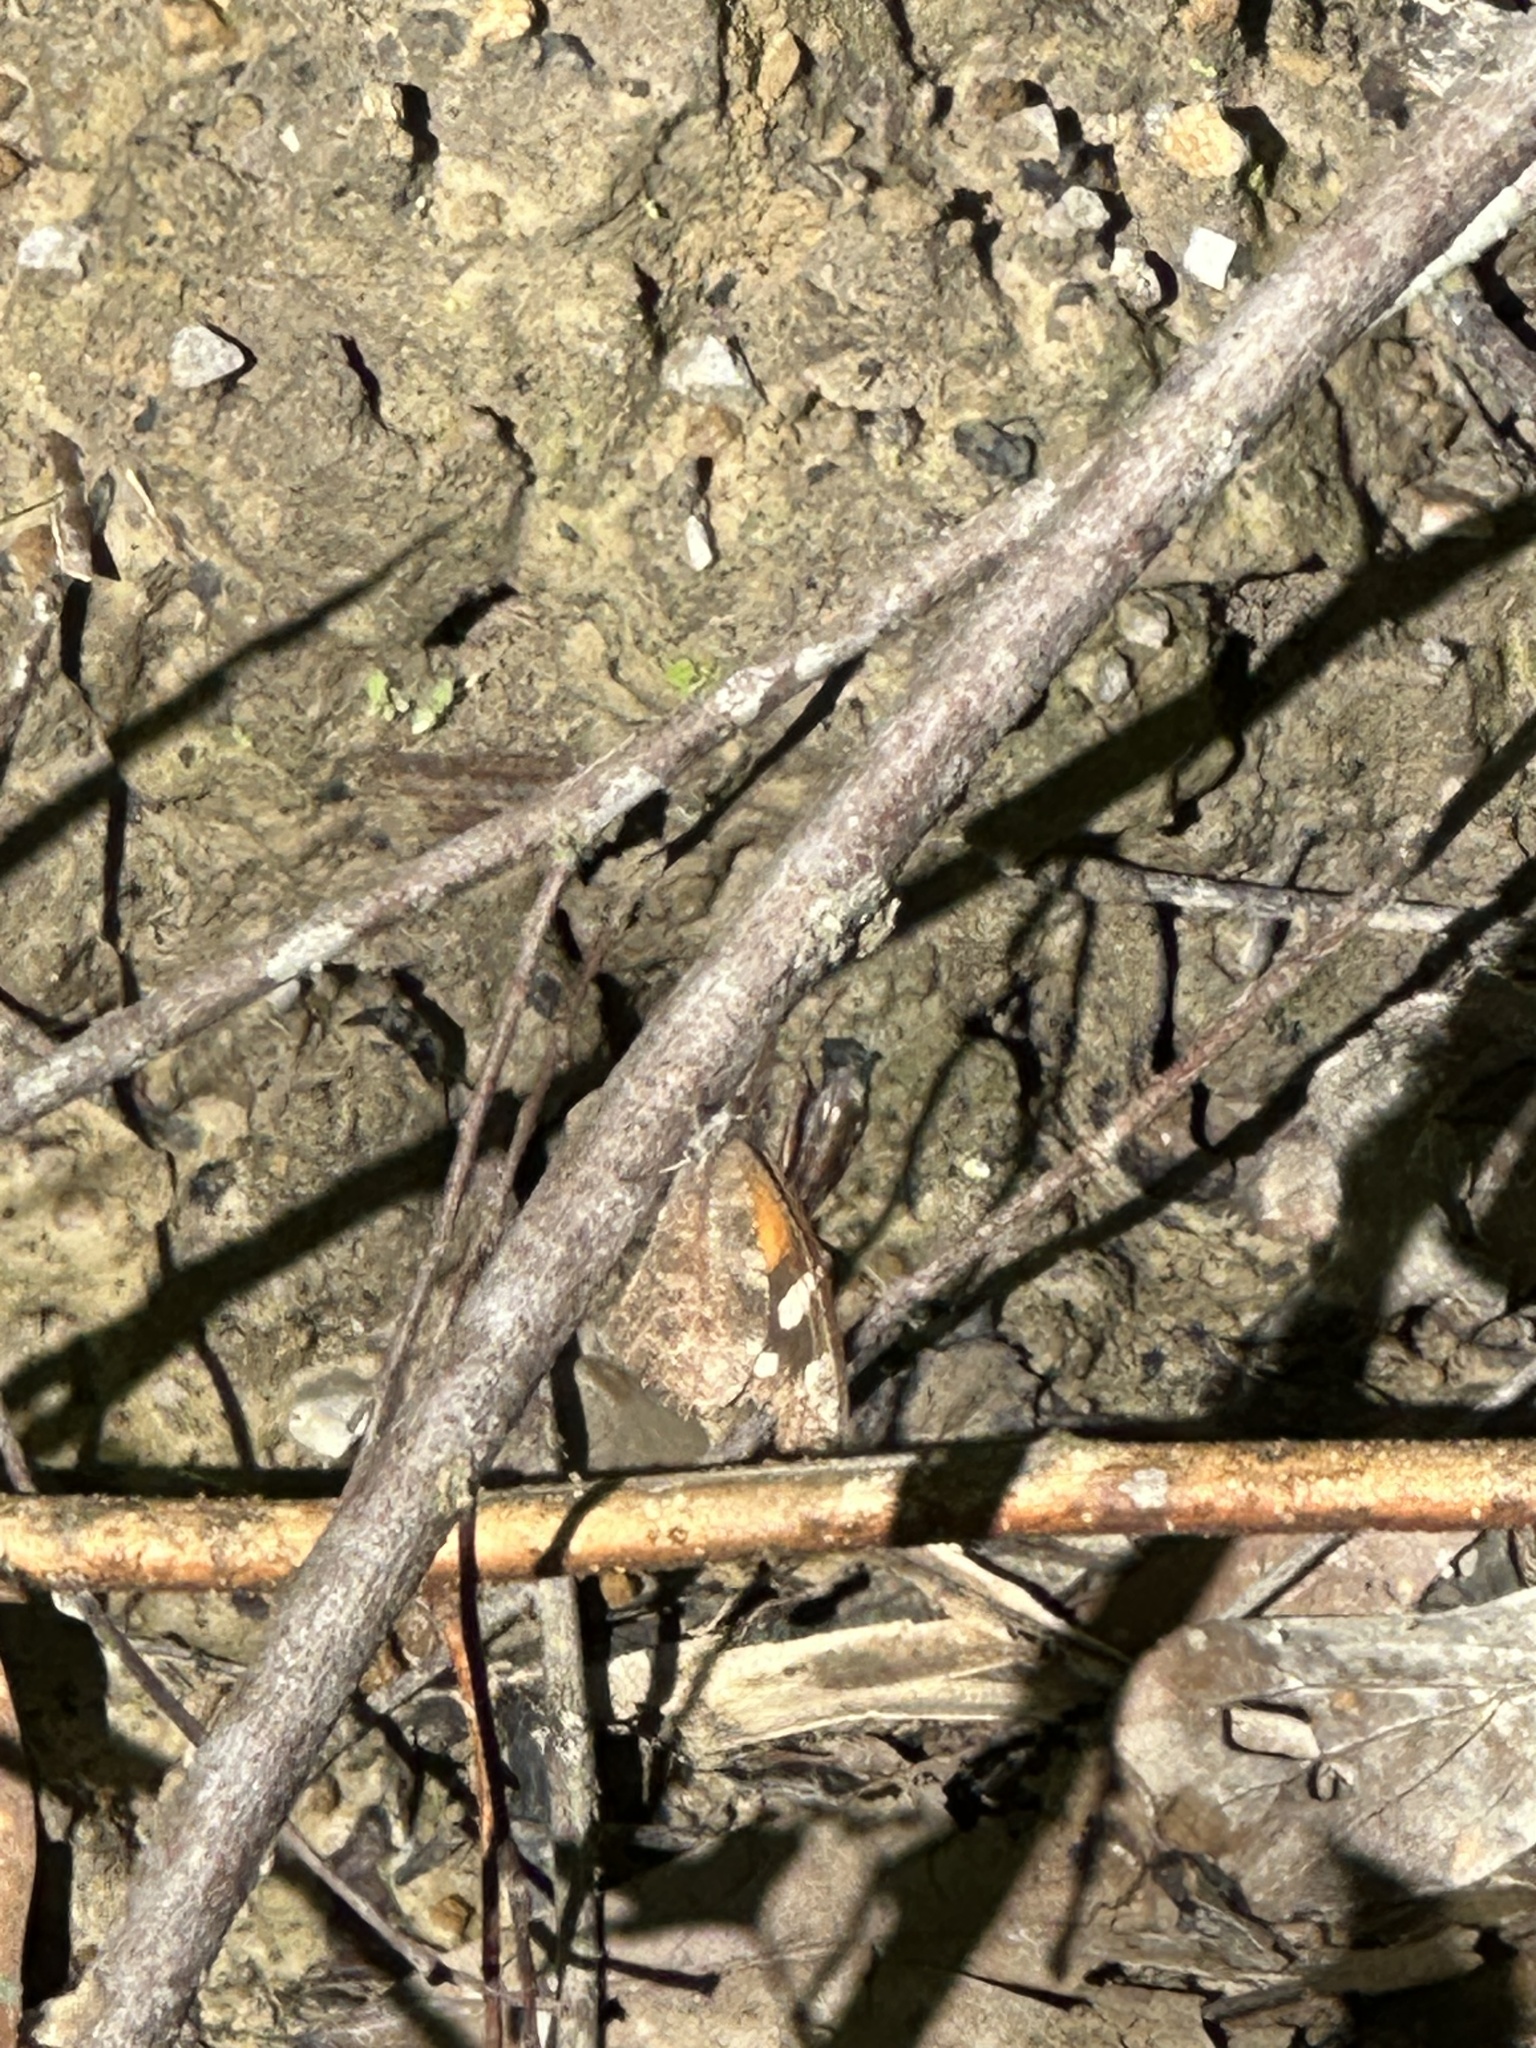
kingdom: Animalia
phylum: Arthropoda
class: Insecta
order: Lepidoptera
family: Nymphalidae
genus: Libytheana
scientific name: Libytheana carinenta
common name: American snout
